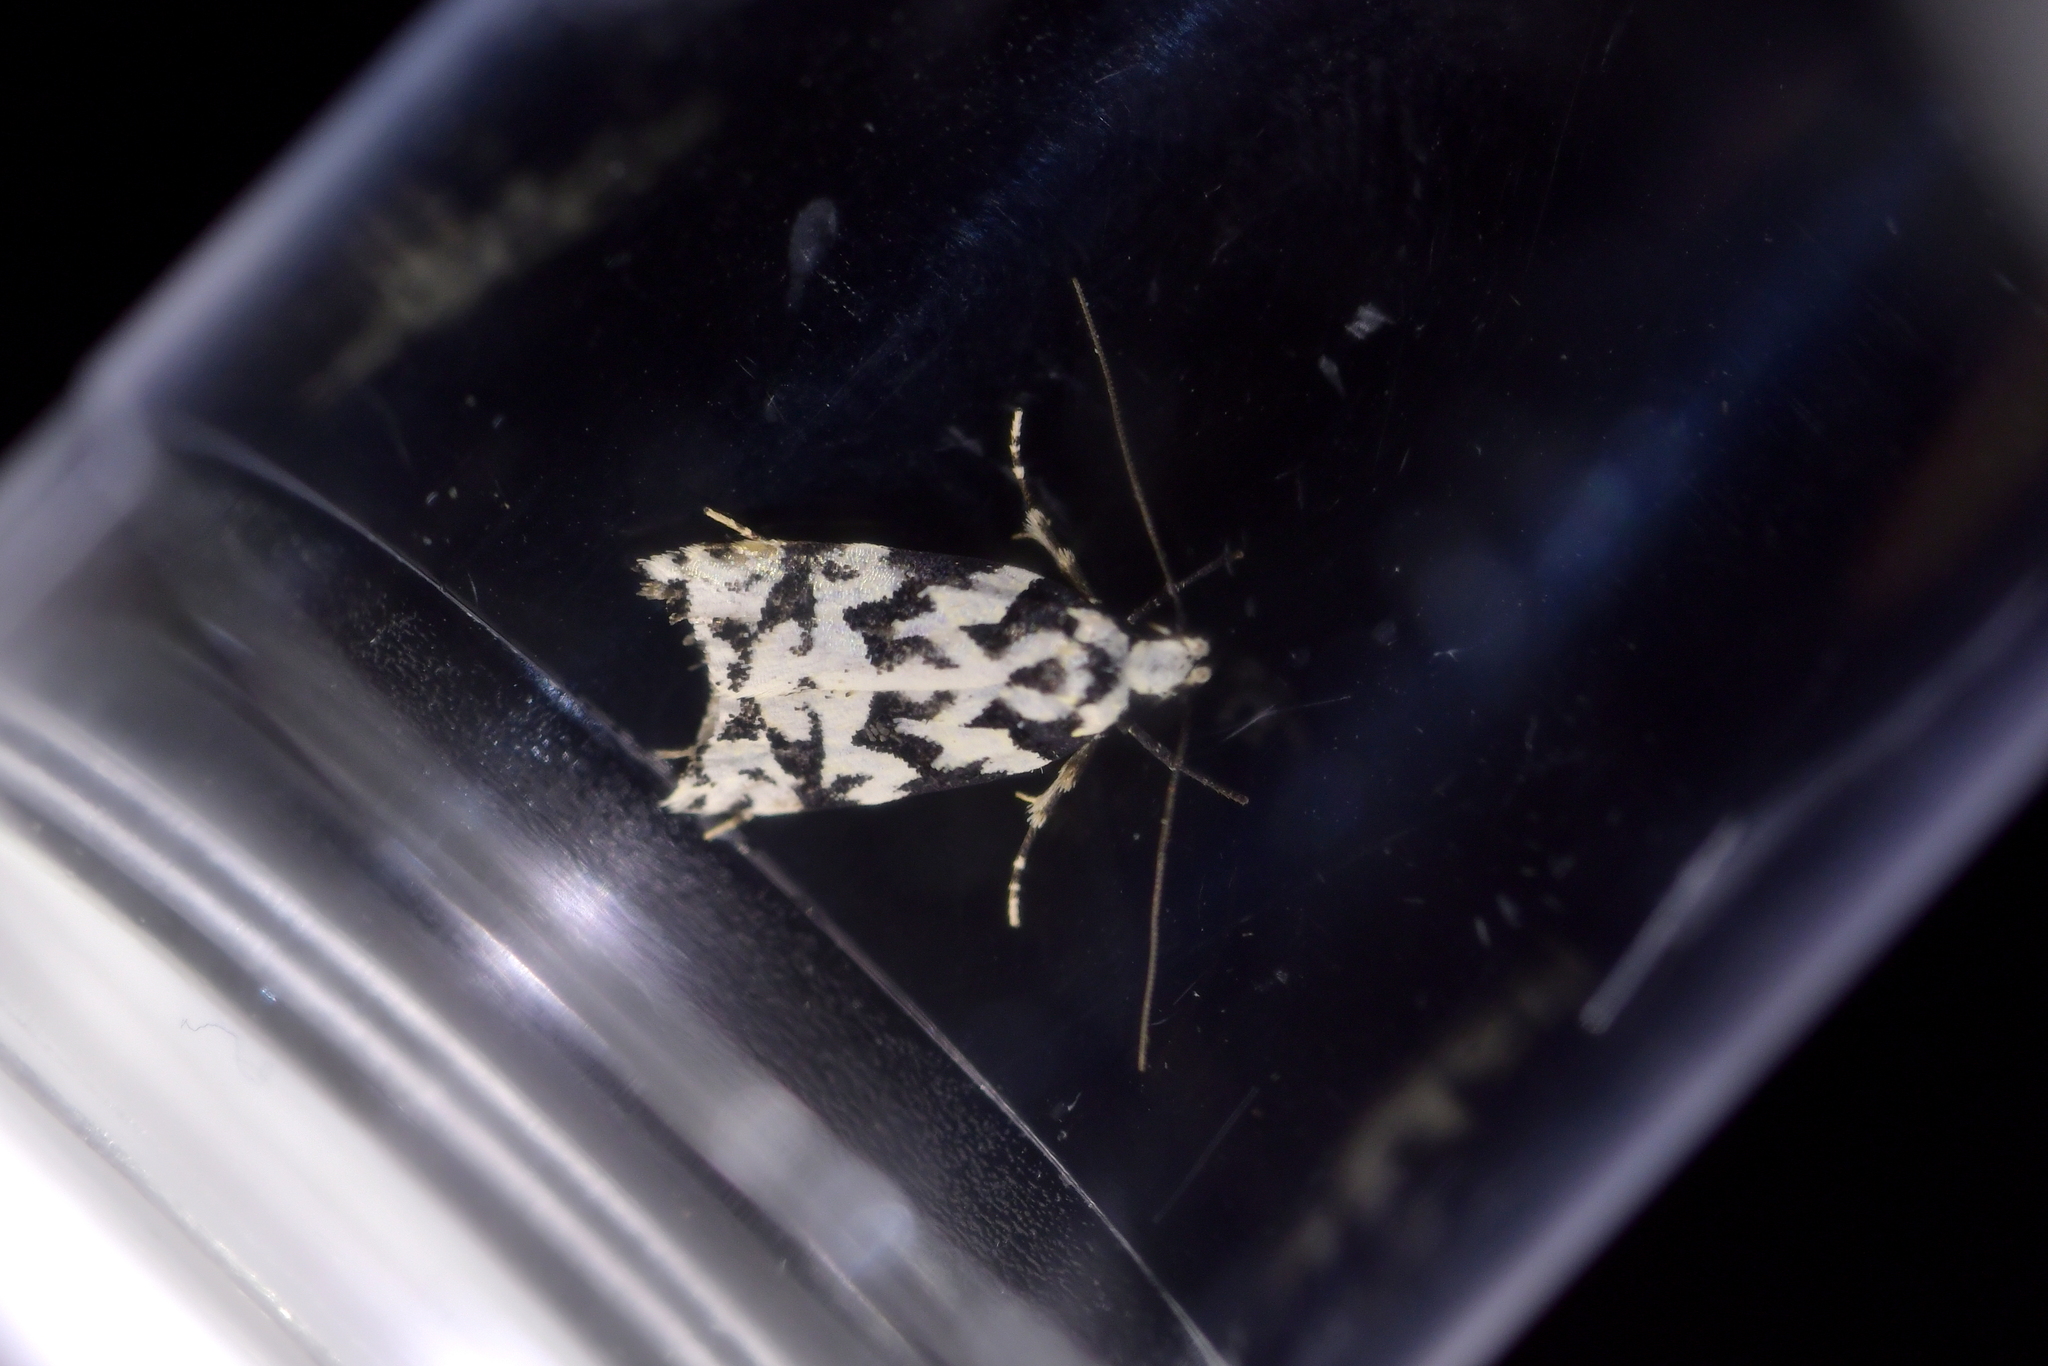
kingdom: Animalia
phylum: Arthropoda
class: Insecta
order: Lepidoptera
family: Oecophoridae
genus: Izatha
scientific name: Izatha
